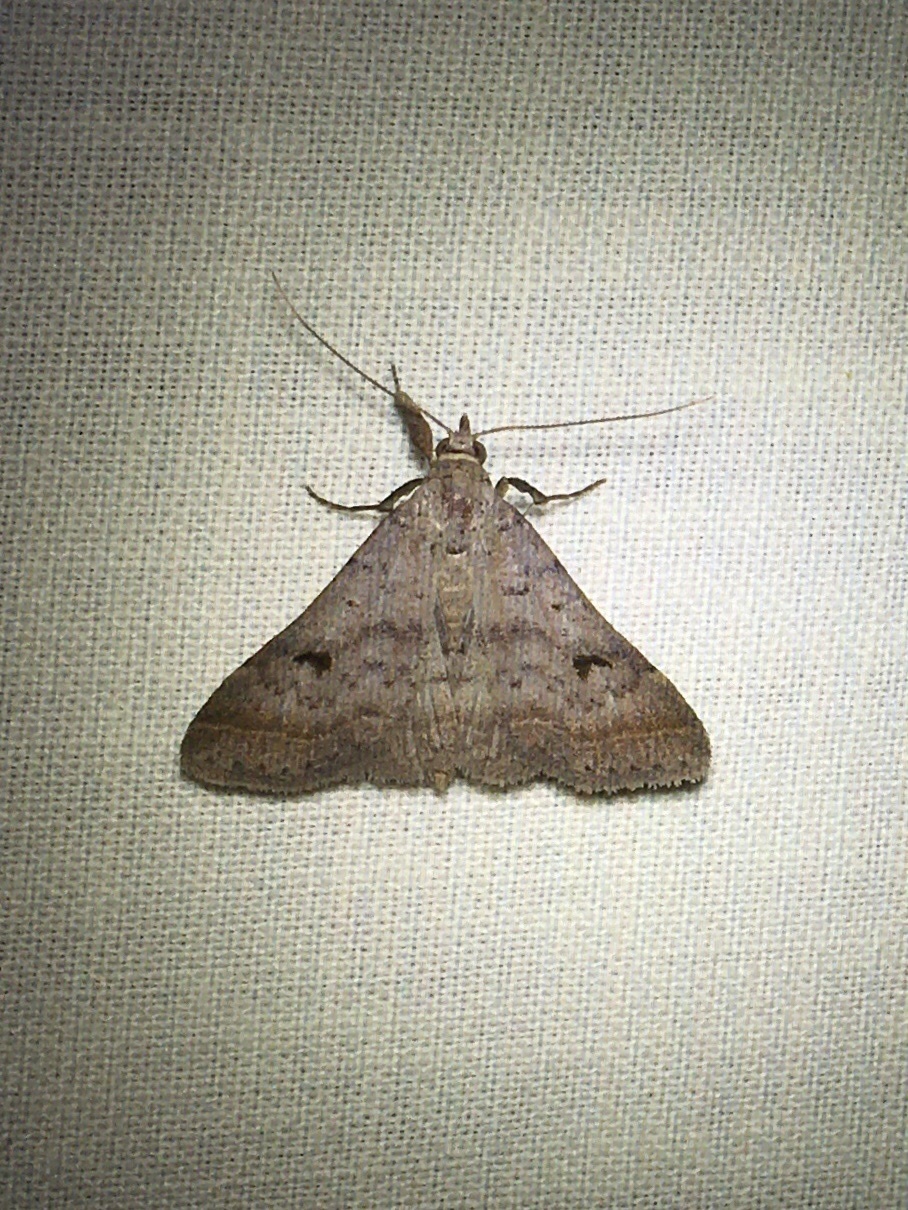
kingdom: Animalia
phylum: Arthropoda
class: Insecta
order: Lepidoptera
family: Erebidae
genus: Bleptina
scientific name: Bleptina caradrinalis
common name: Bent-winged owlet
